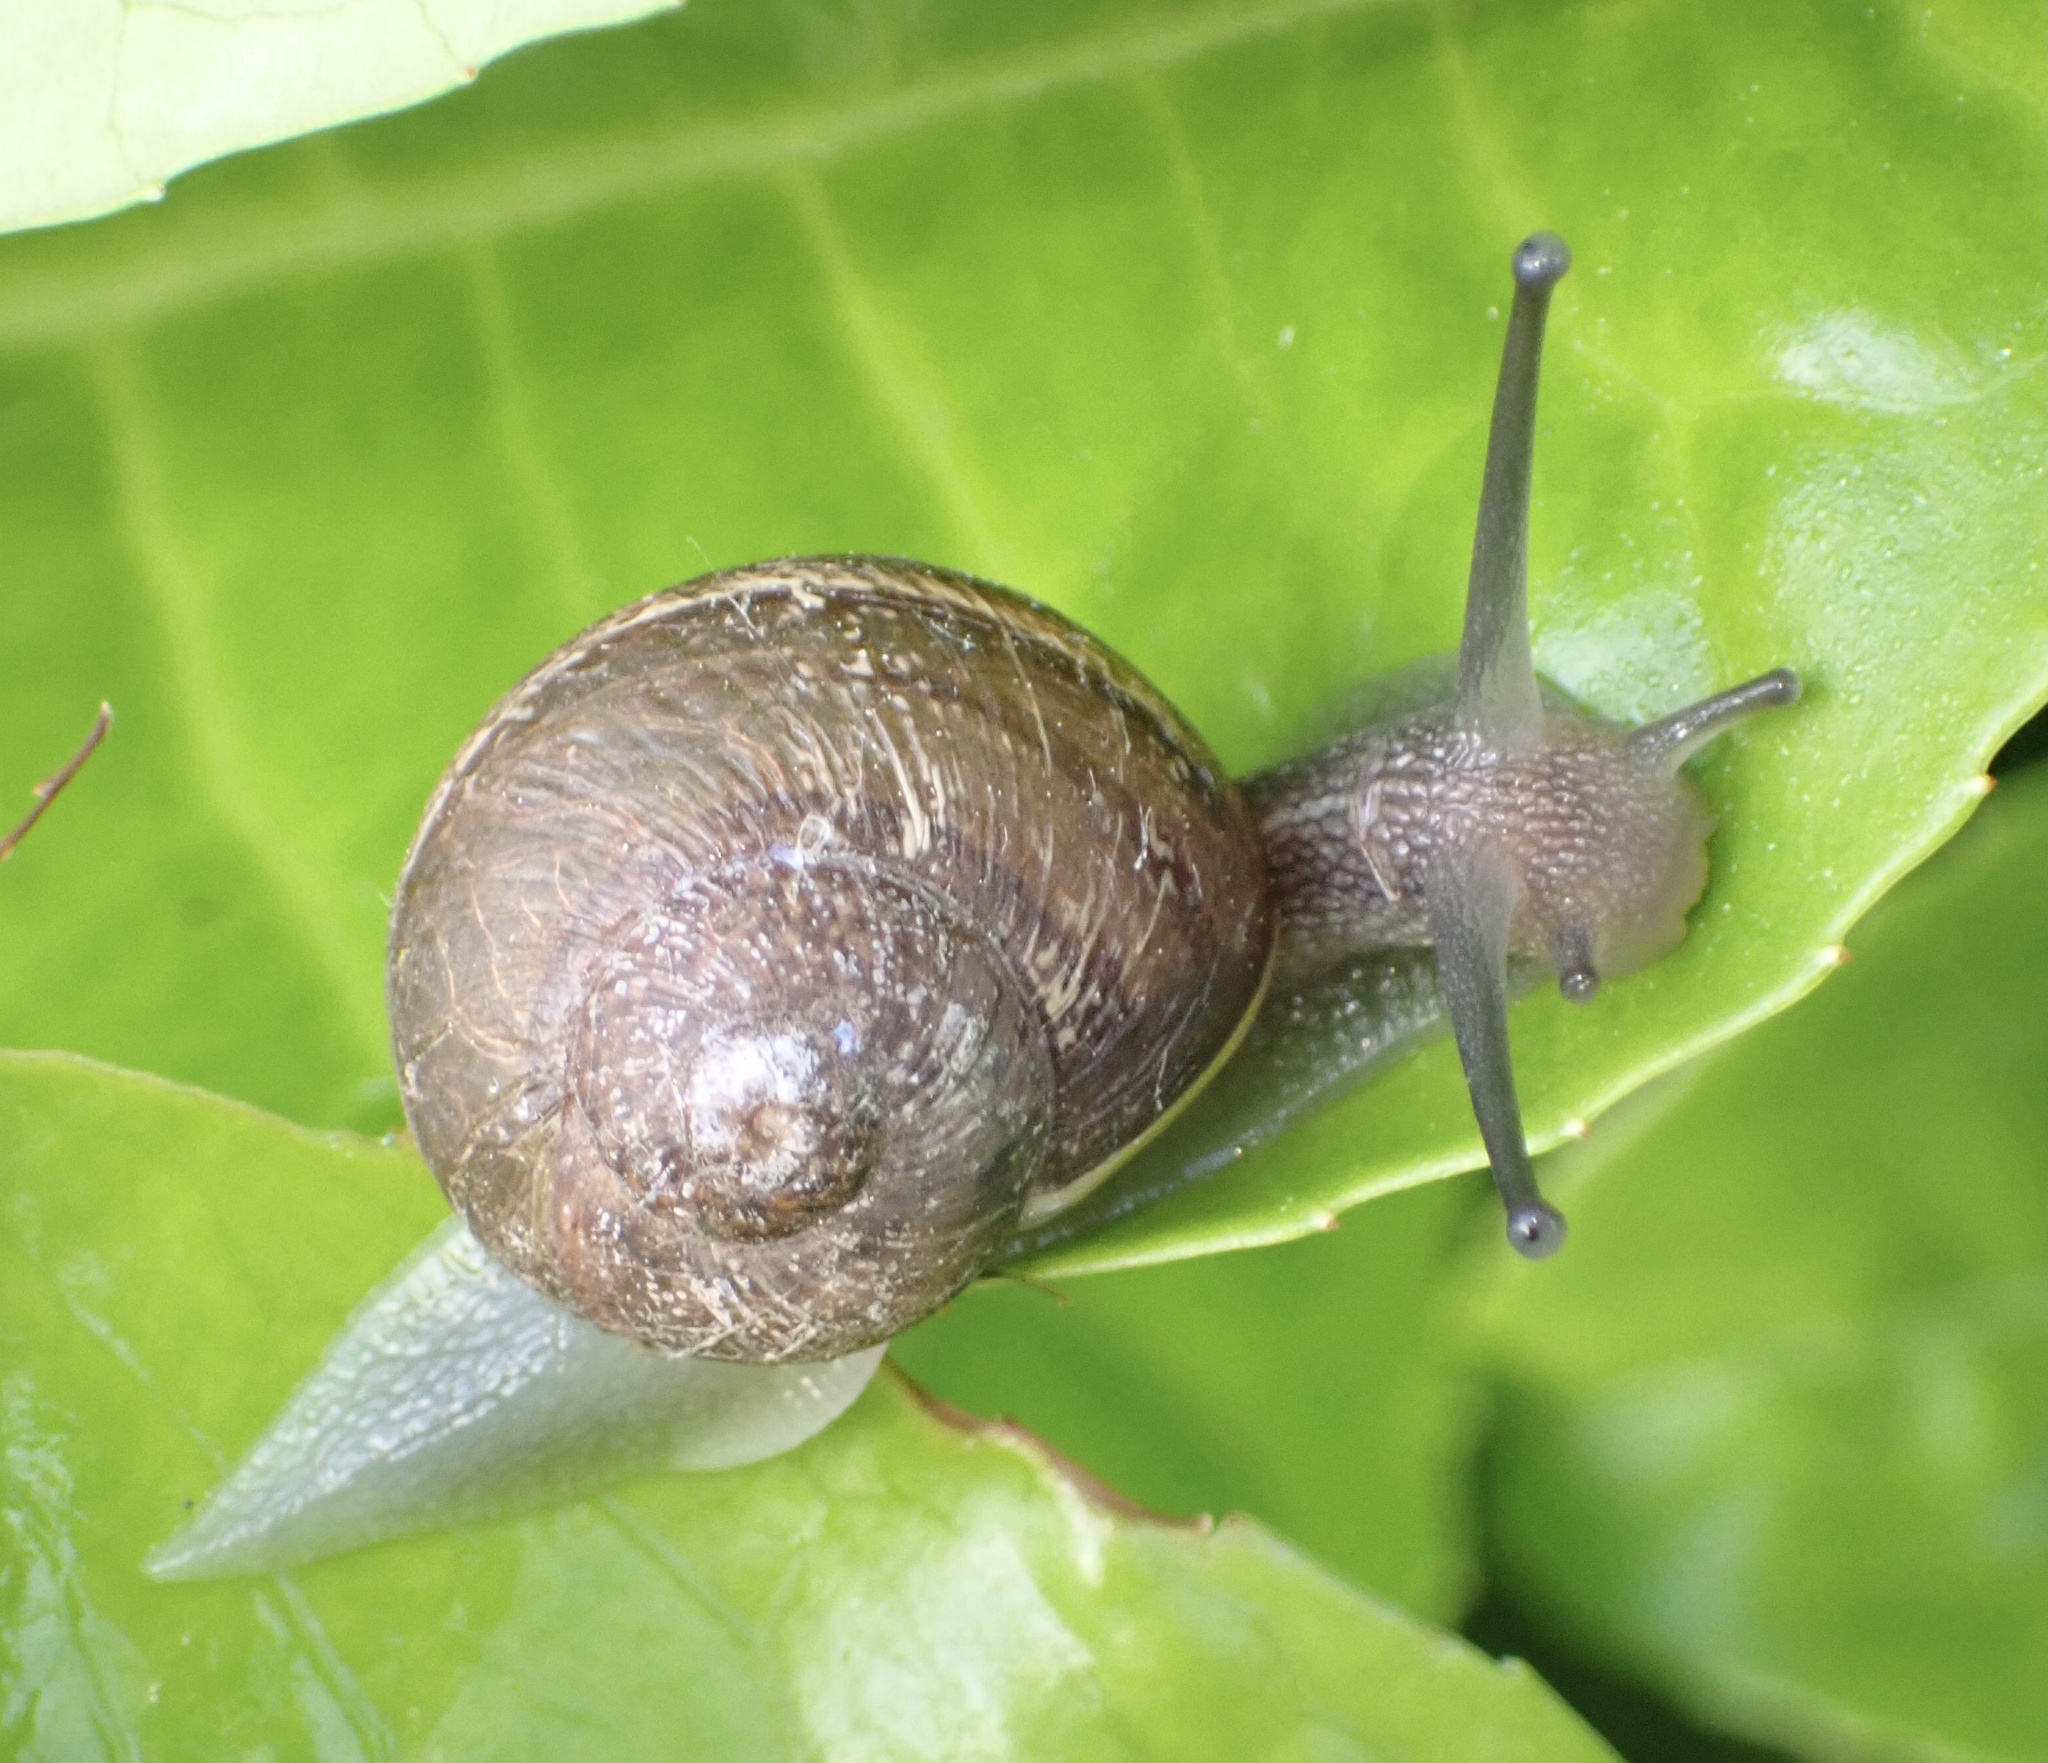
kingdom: Animalia
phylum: Mollusca
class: Gastropoda
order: Stylommatophora
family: Helicidae
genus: Cornu
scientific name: Cornu aspersum
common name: Brown garden snail
